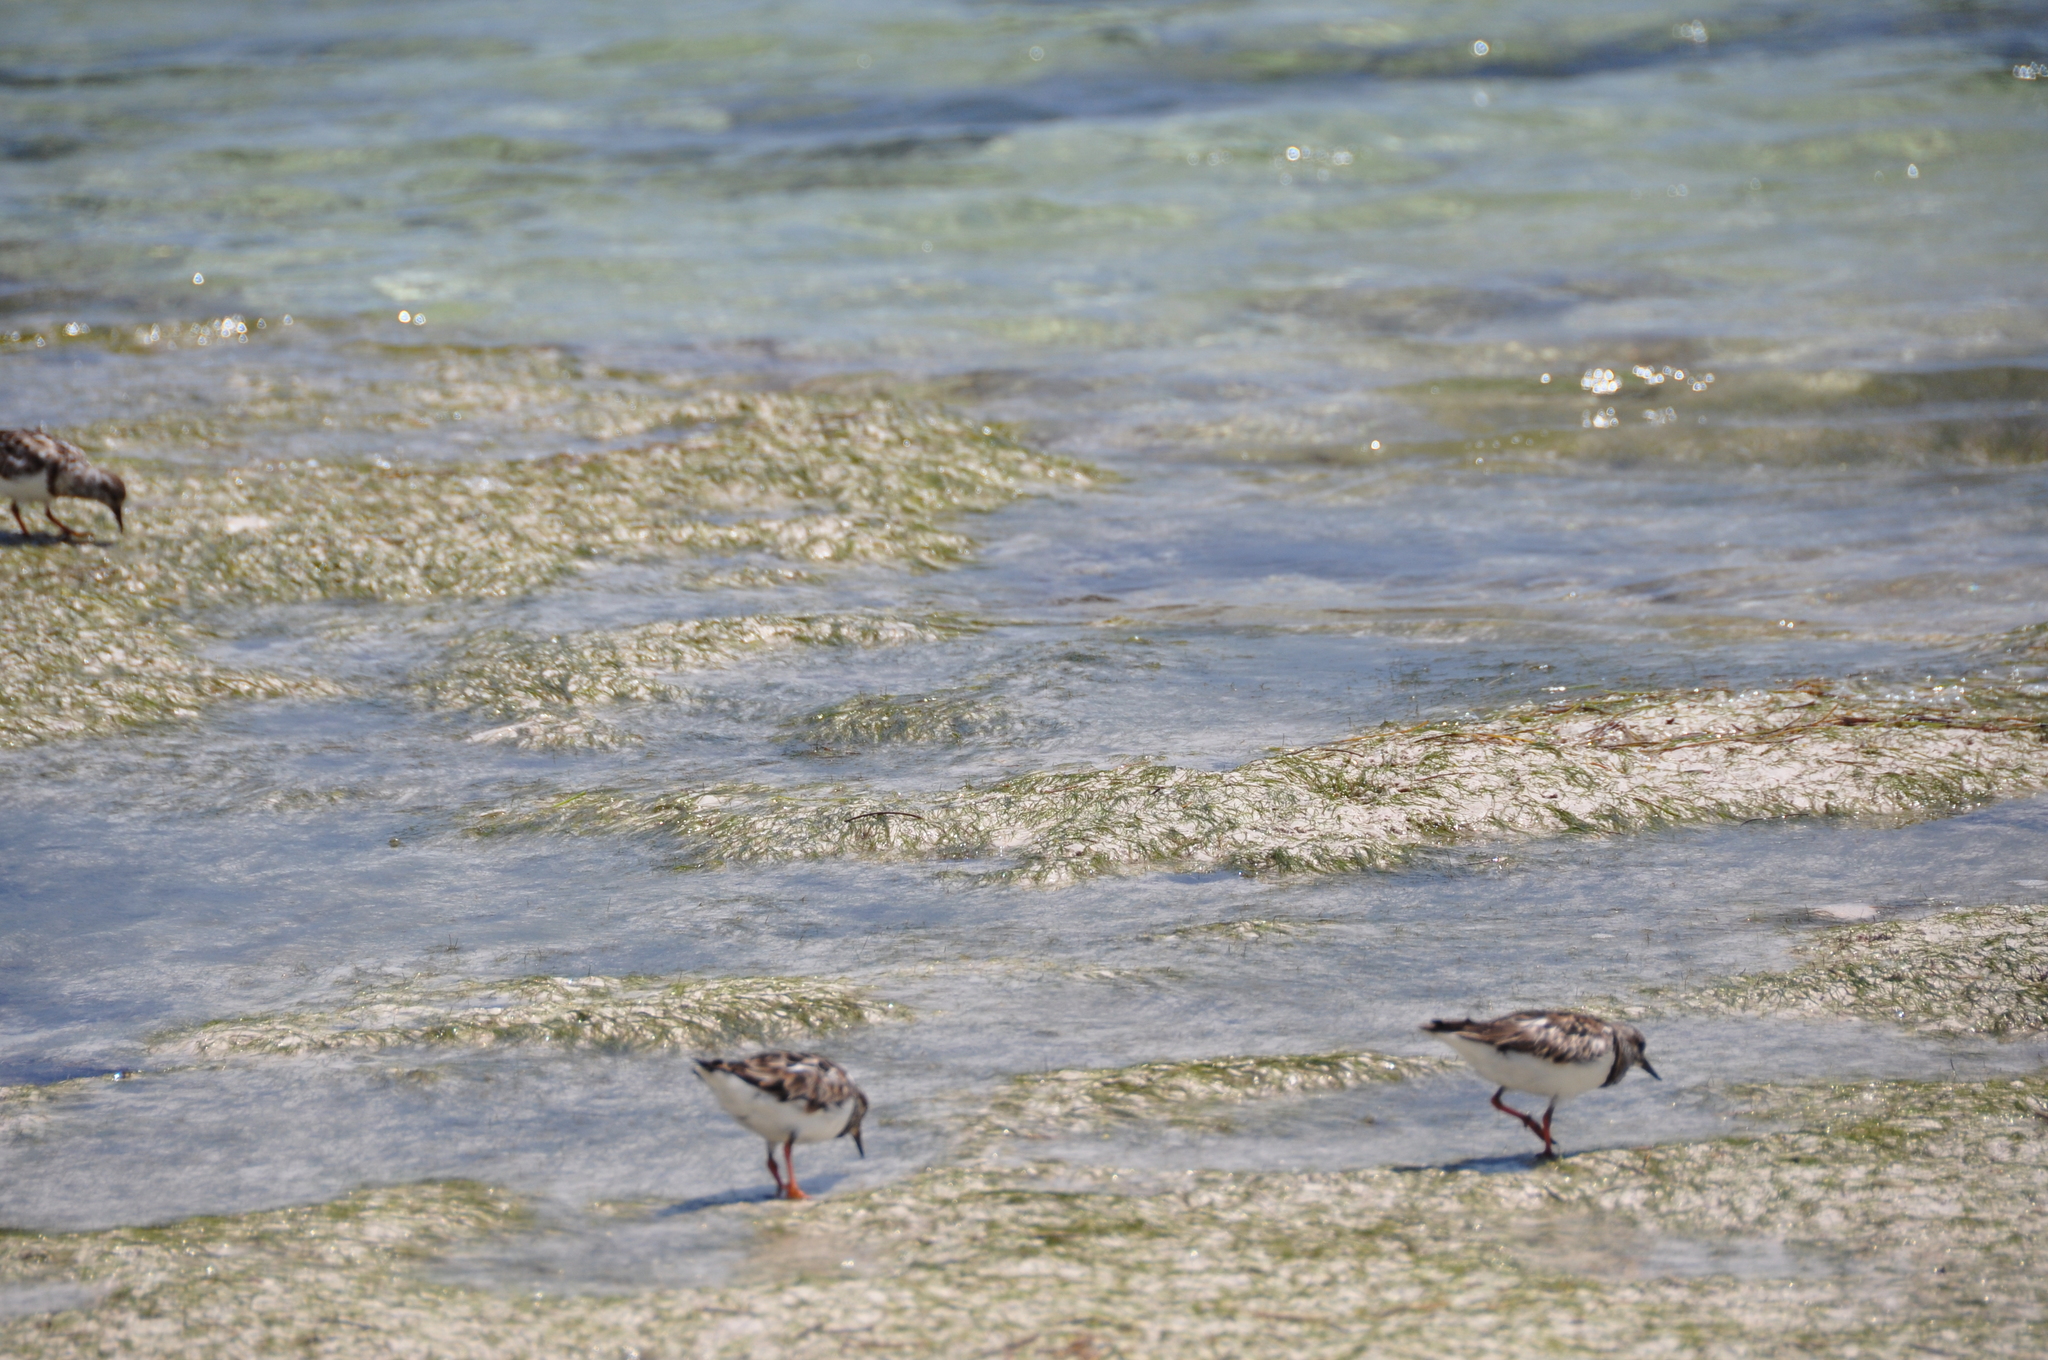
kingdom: Animalia
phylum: Chordata
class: Aves
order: Charadriiformes
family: Scolopacidae
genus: Arenaria
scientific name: Arenaria interpres
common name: Ruddy turnstone
